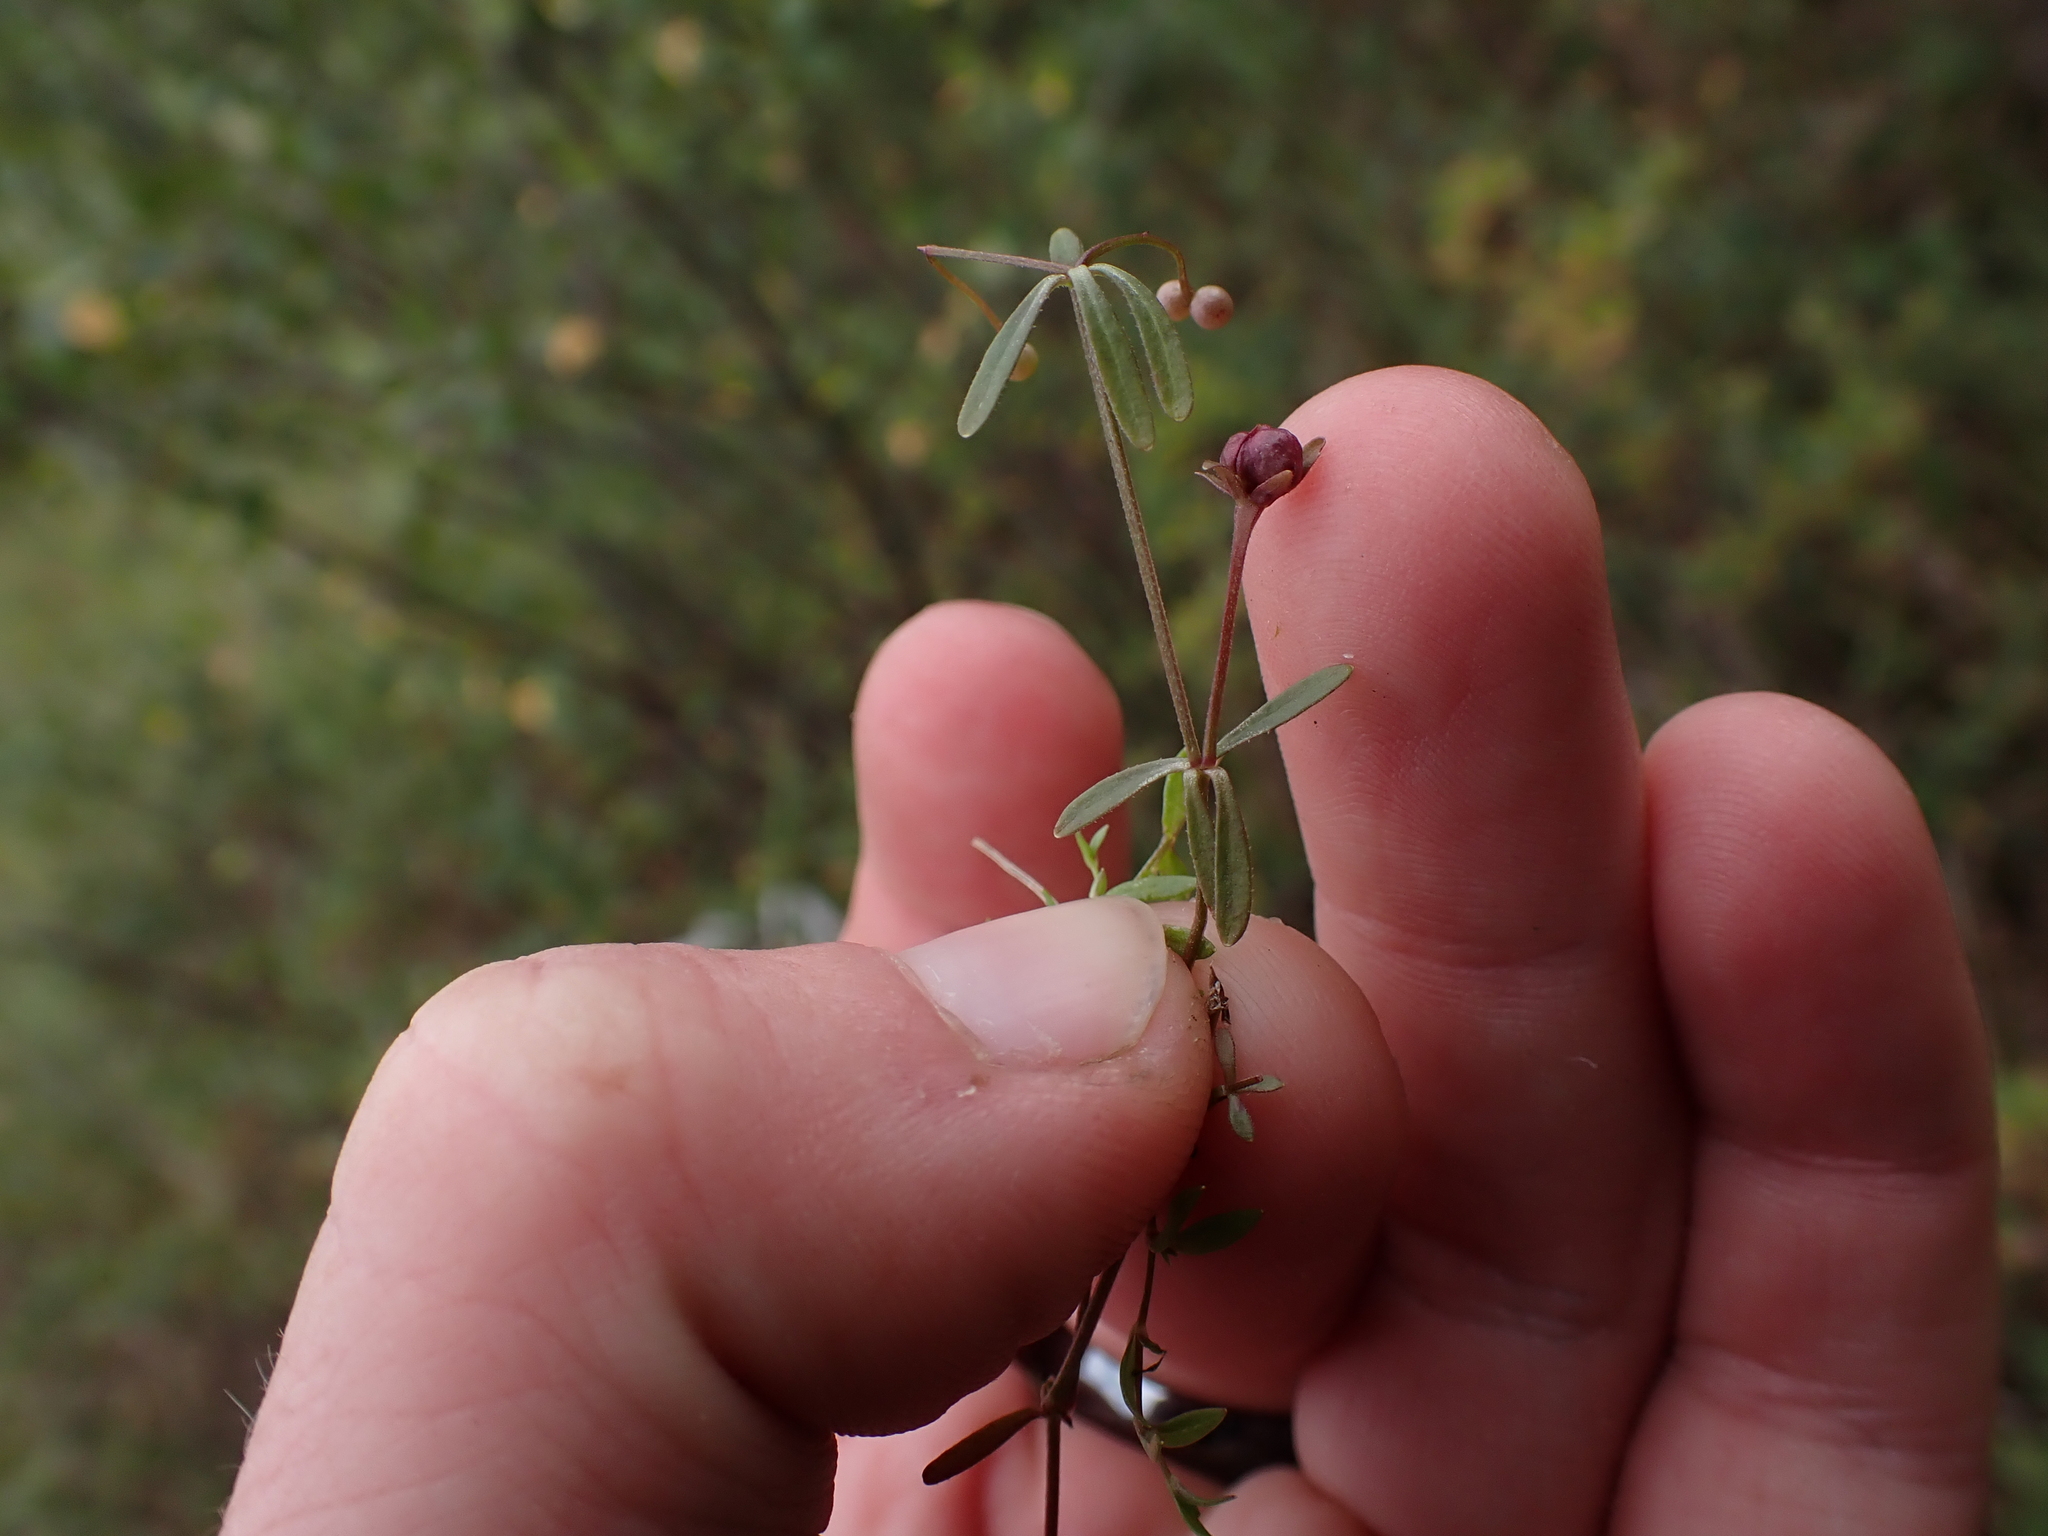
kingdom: Plantae
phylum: Tracheophyta
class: Magnoliopsida
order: Gentianales
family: Rubiaceae
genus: Galium
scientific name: Galium trifidum
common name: Small bedstraw
